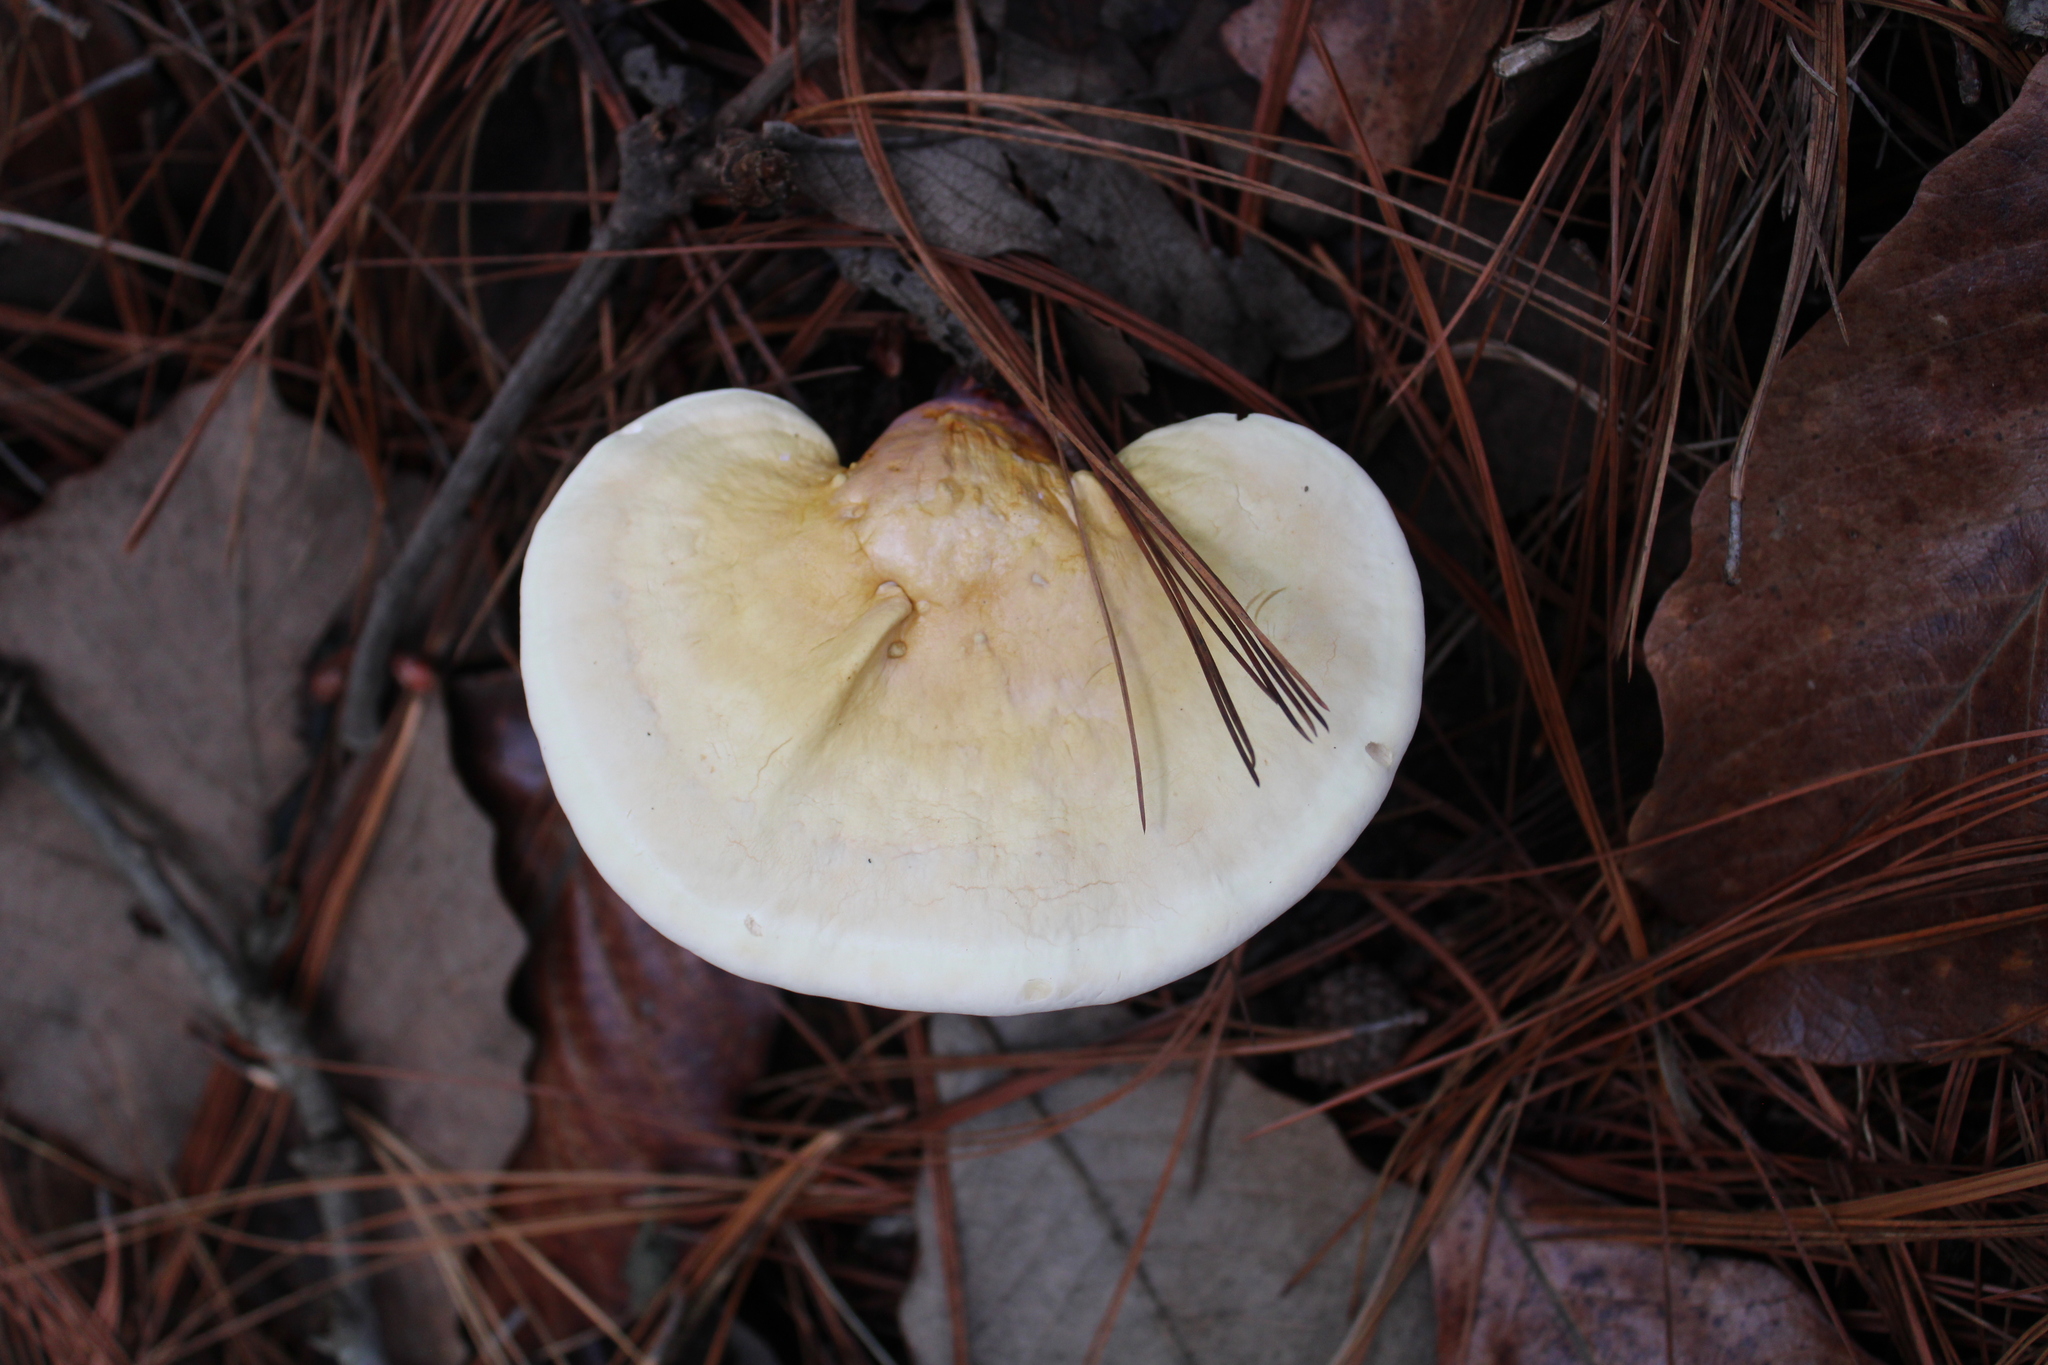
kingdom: Fungi
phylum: Basidiomycota
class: Agaricomycetes
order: Polyporales
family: Polyporaceae
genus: Ganoderma
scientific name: Ganoderma curtisii
